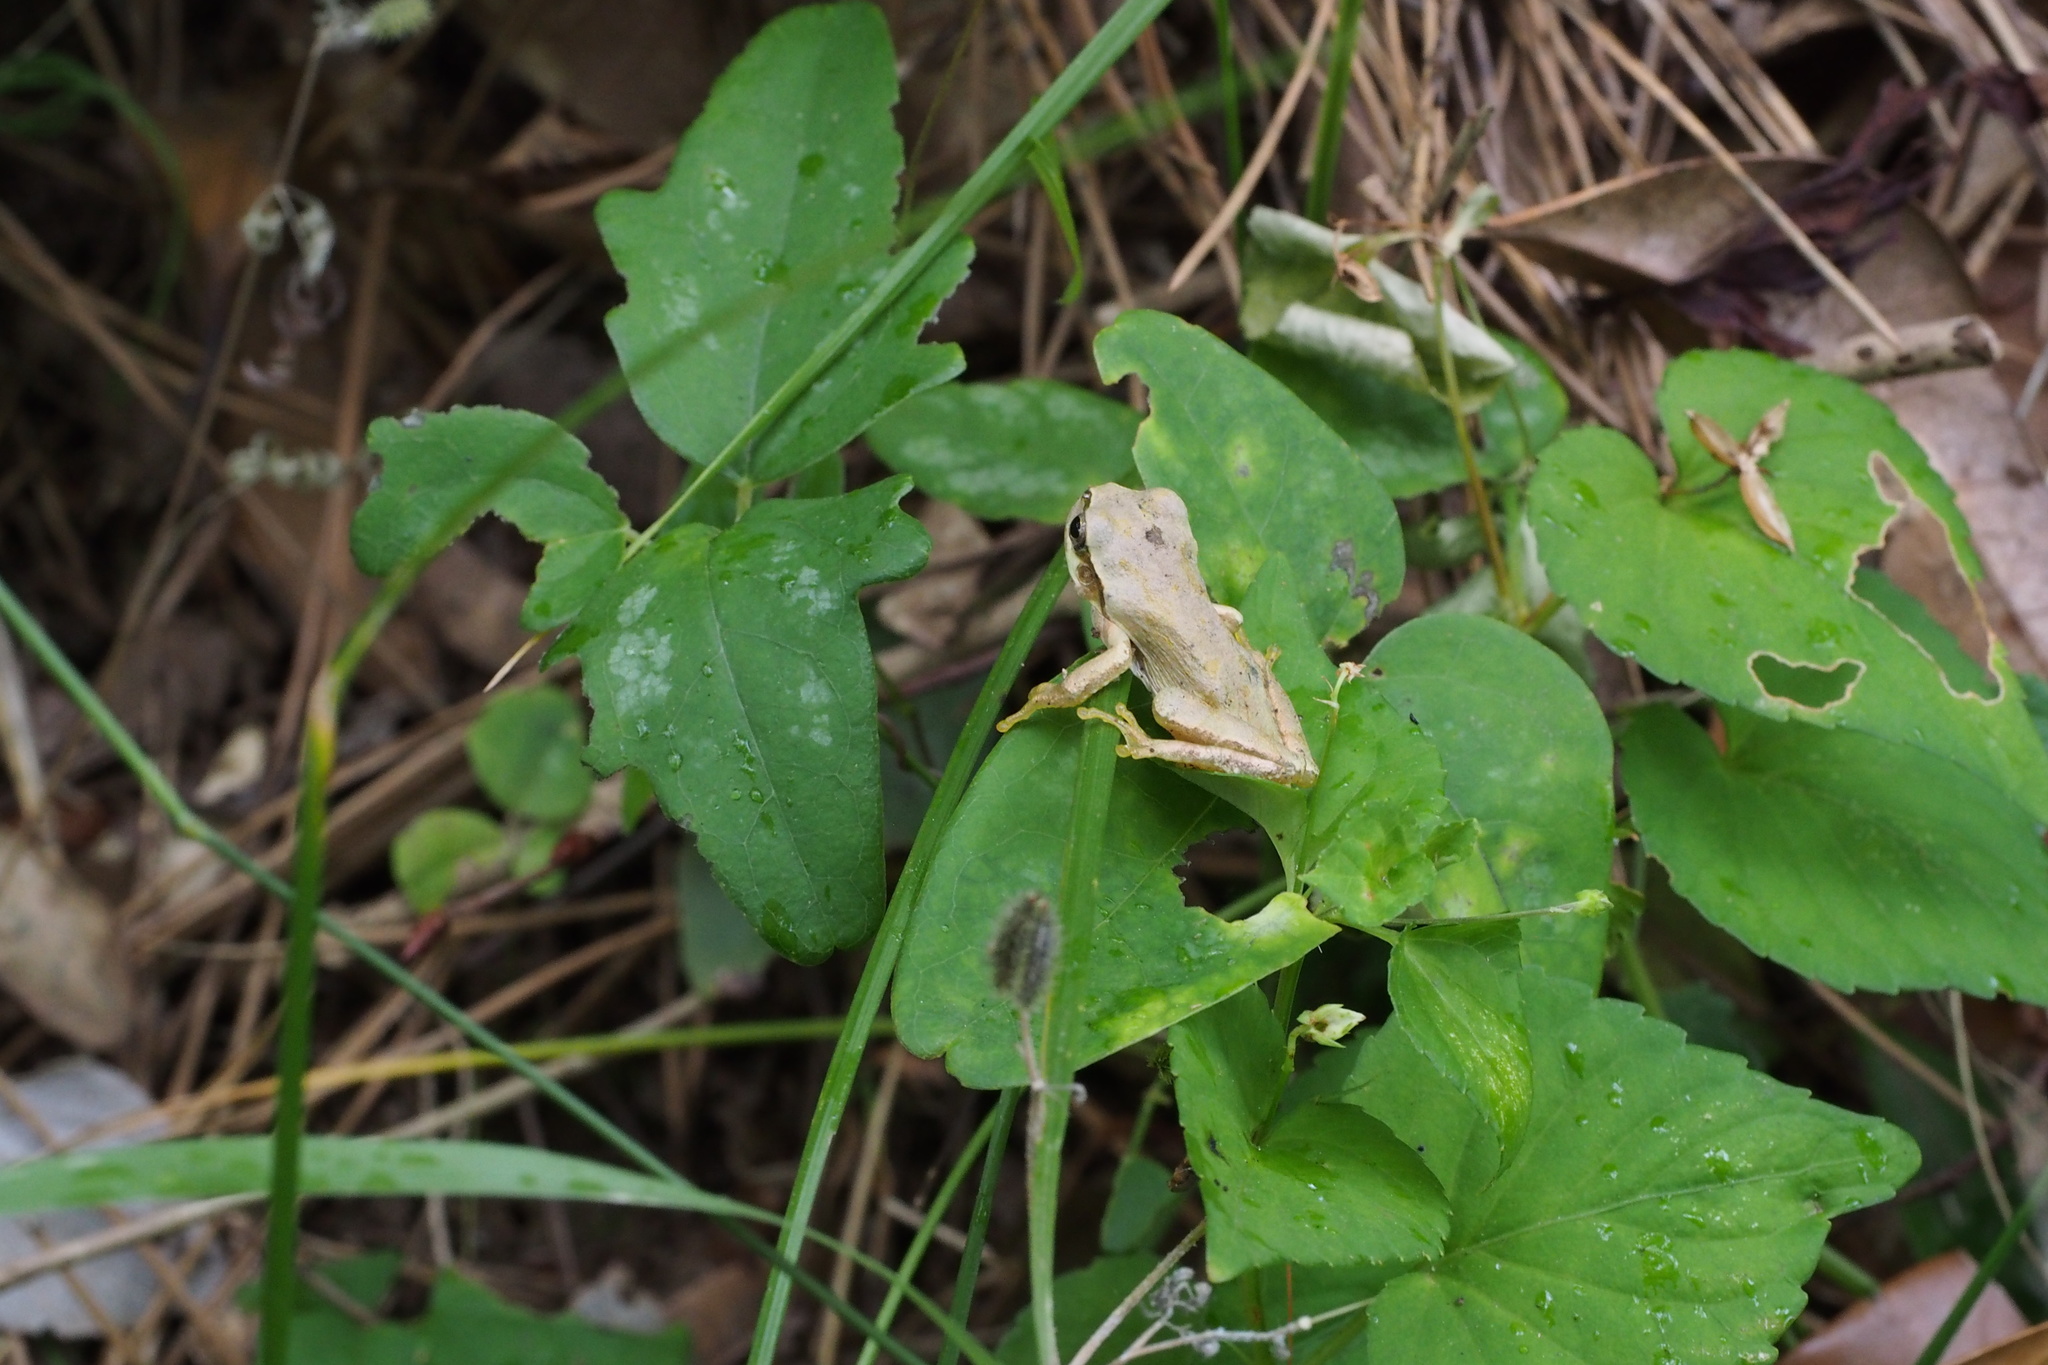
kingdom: Animalia
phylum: Chordata
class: Amphibia
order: Anura
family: Hylidae
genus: Dryophytes
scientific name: Dryophytes japonicus
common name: Japanese treefrog
